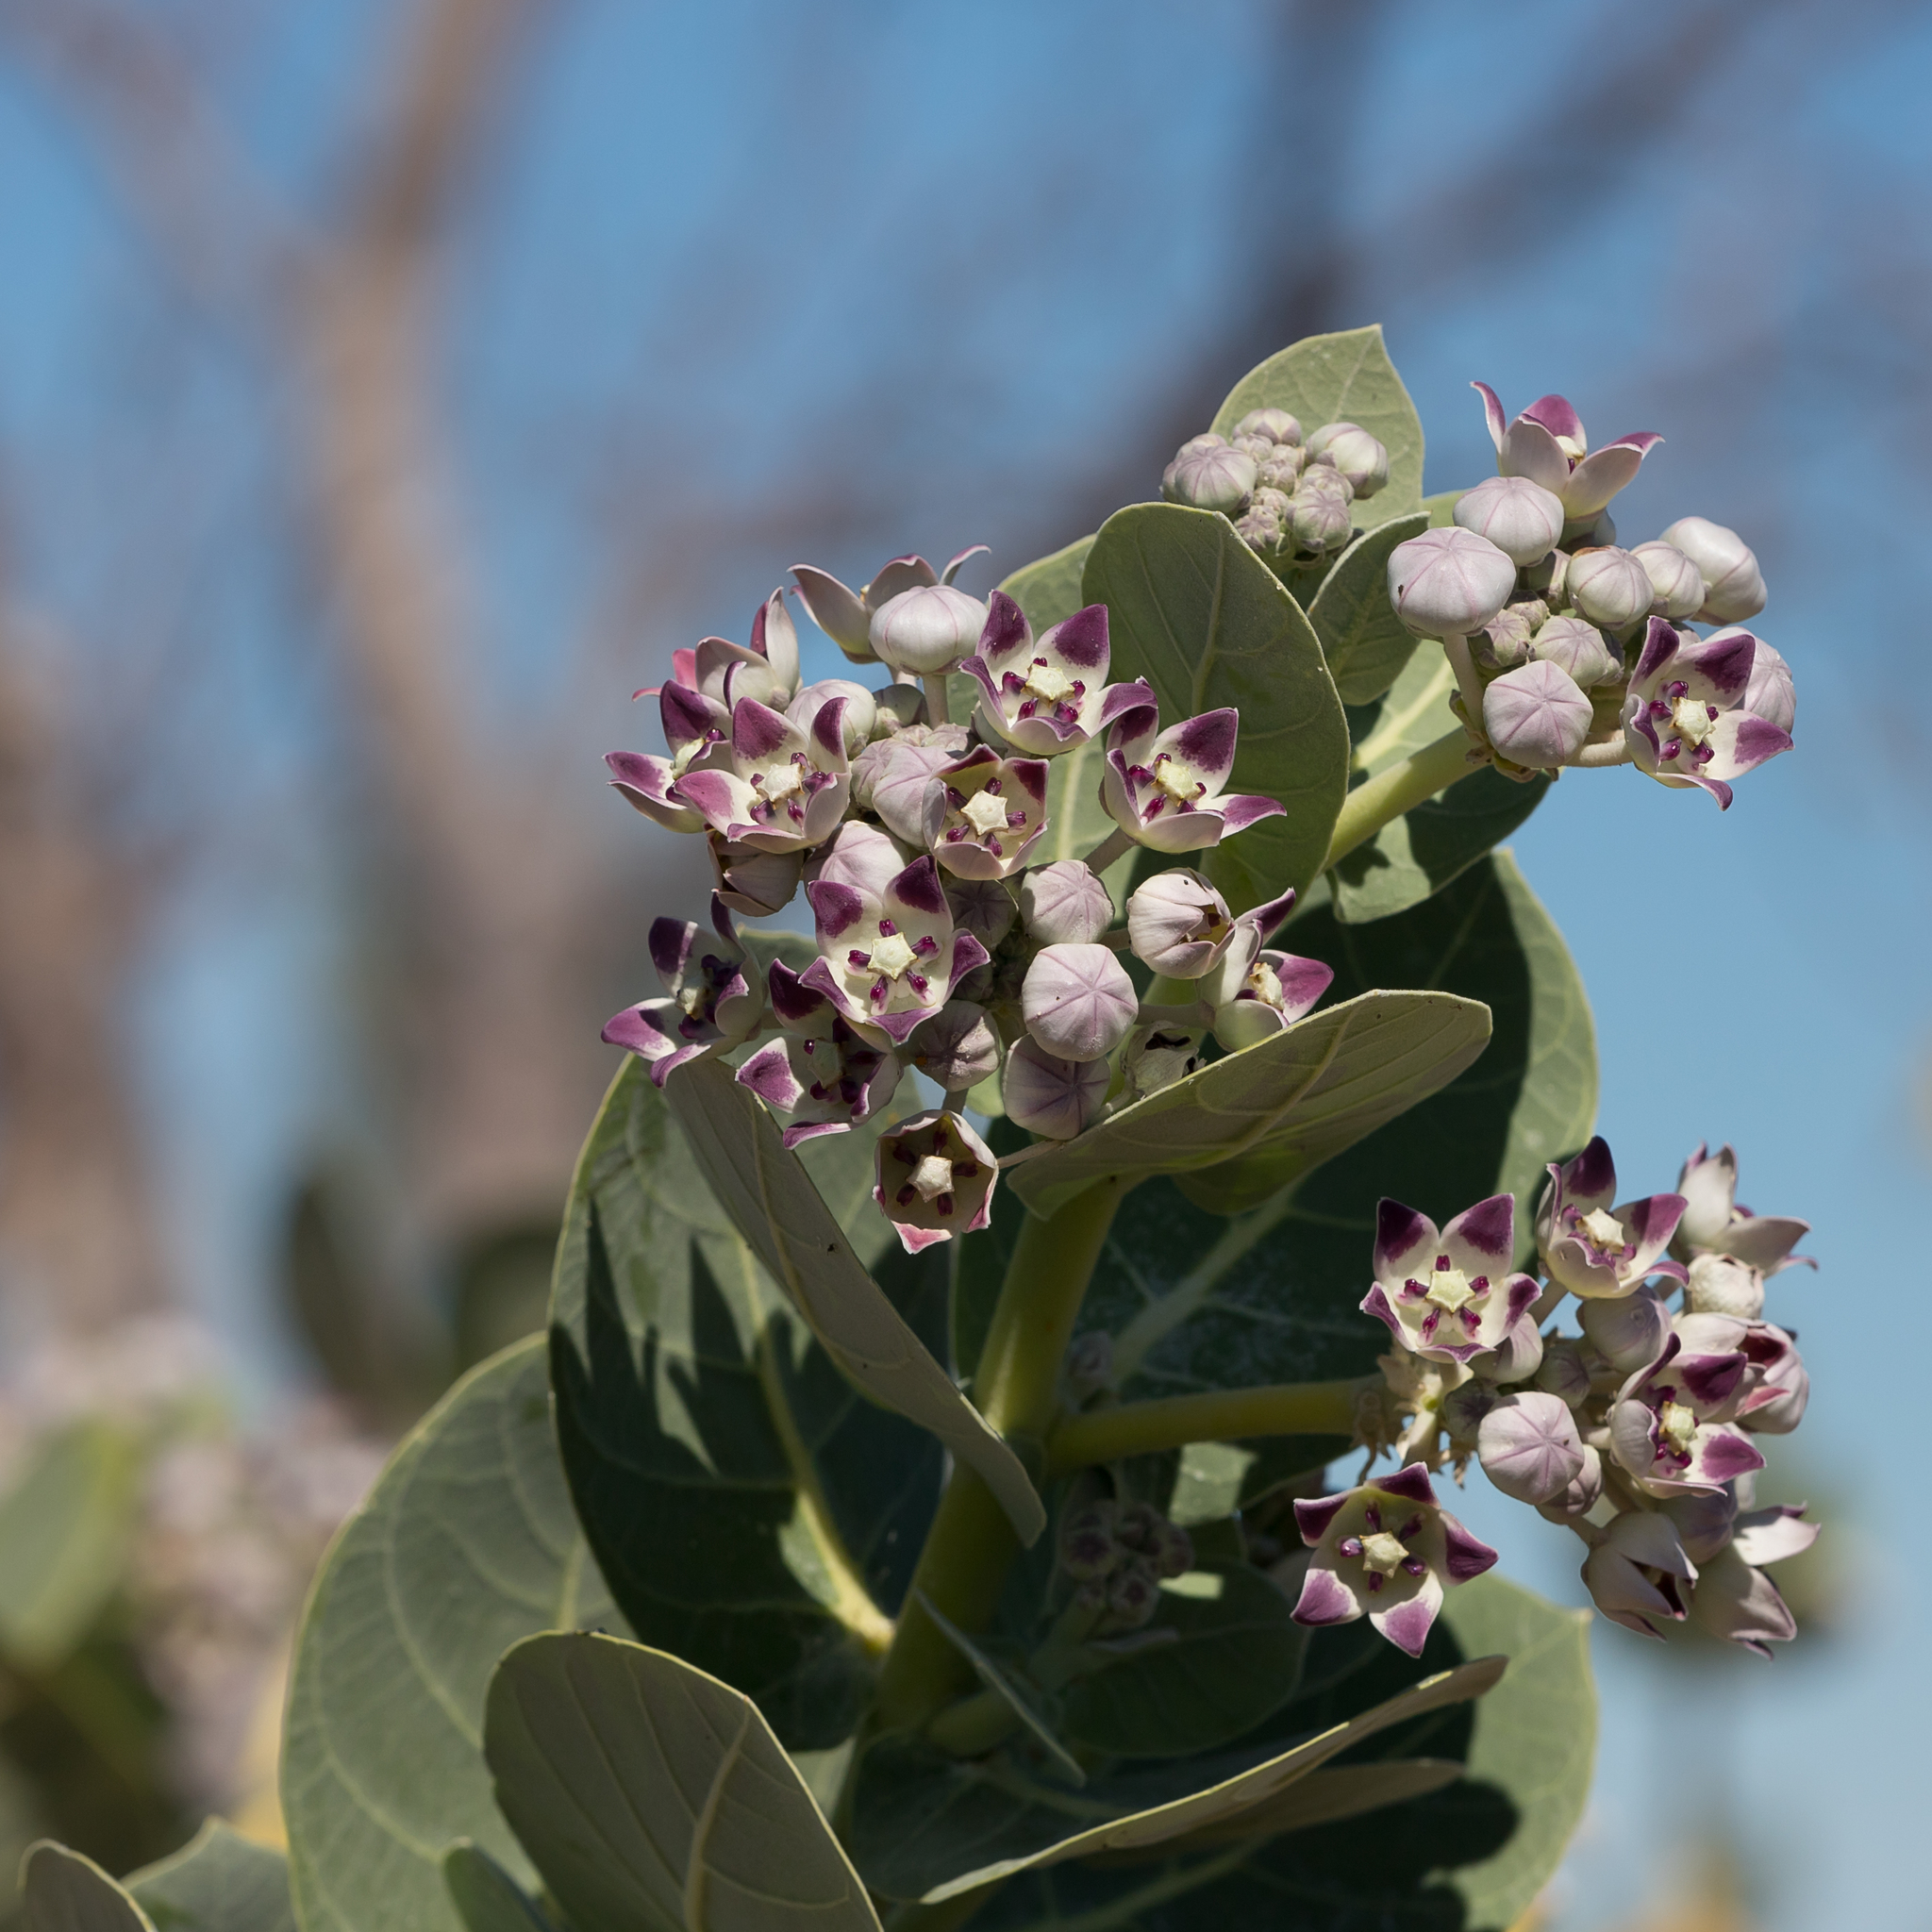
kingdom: Plantae
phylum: Tracheophyta
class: Magnoliopsida
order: Gentianales
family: Apocynaceae
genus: Calotropis
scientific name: Calotropis procera
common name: Roostertree
